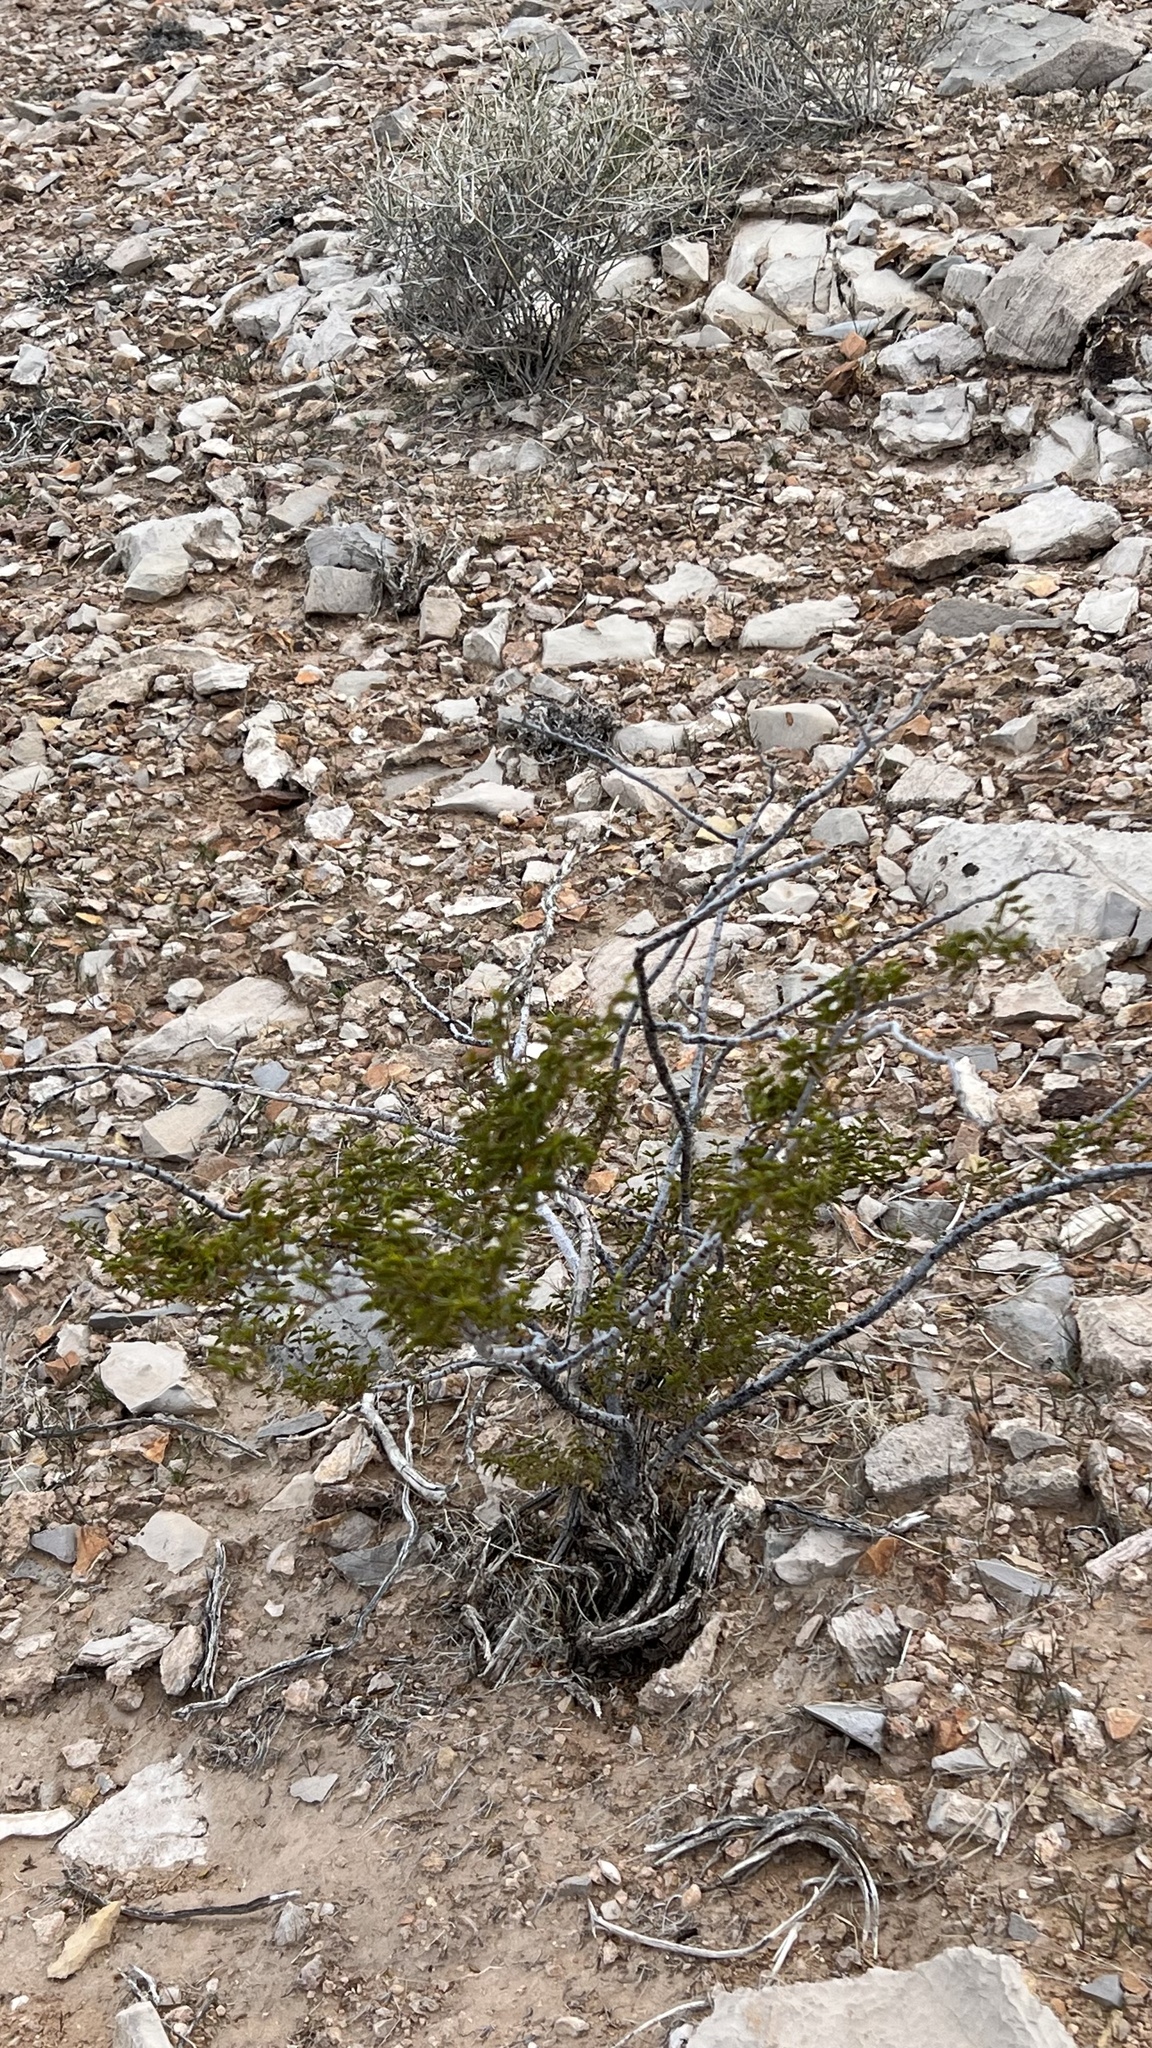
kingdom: Plantae
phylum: Tracheophyta
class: Magnoliopsida
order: Zygophyllales
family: Zygophyllaceae
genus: Larrea
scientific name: Larrea tridentata
